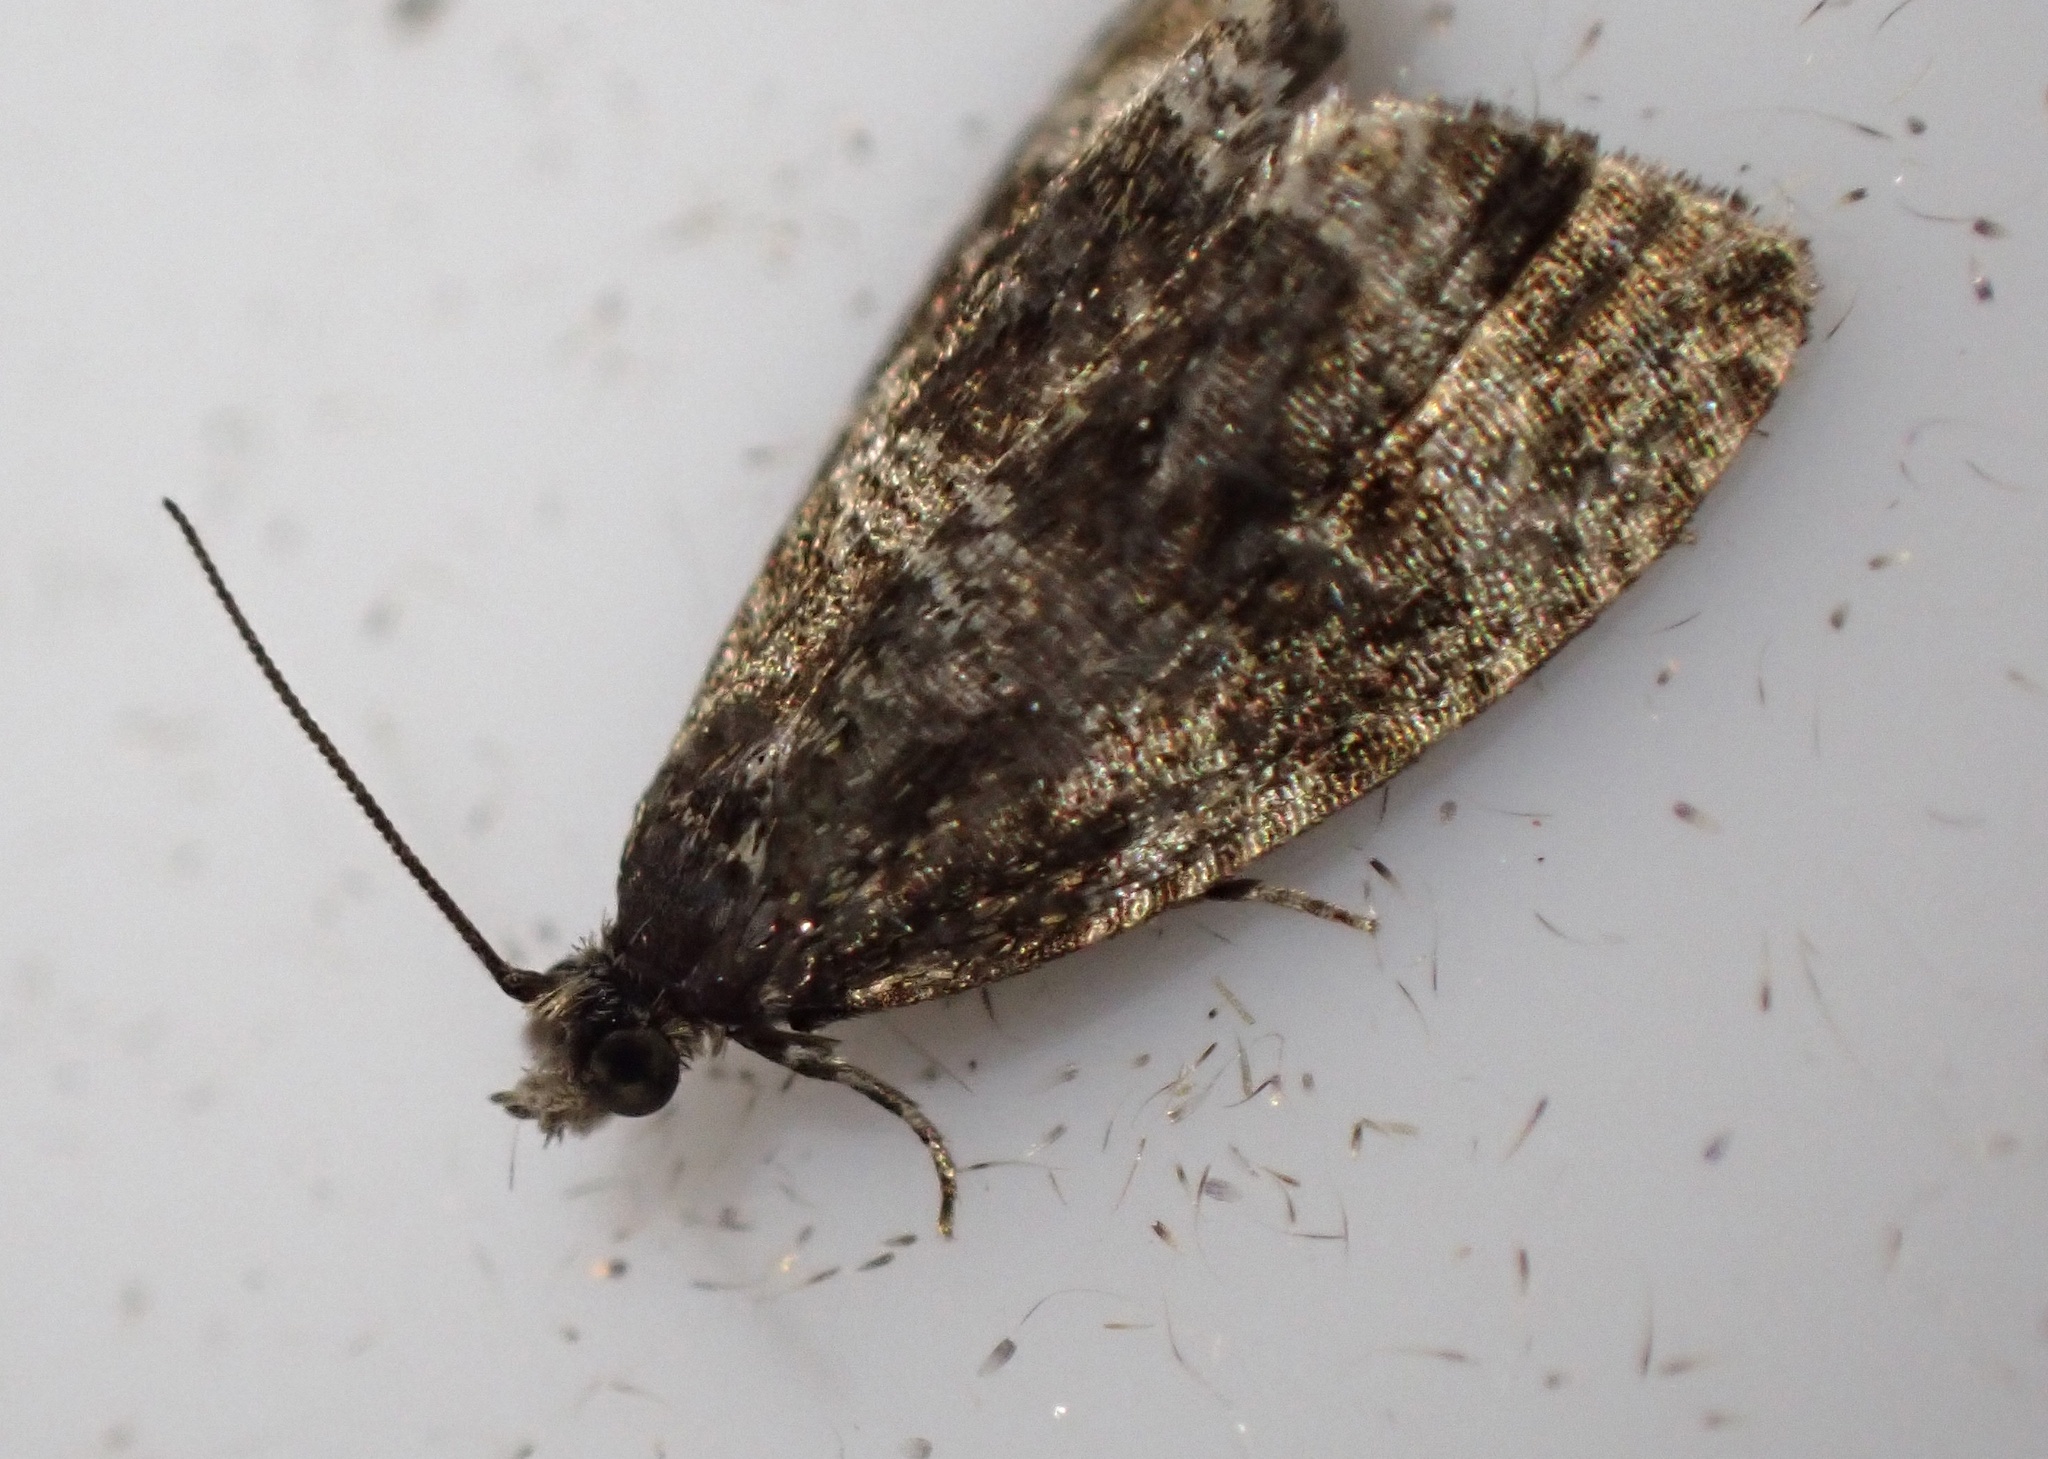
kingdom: Animalia
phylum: Arthropoda
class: Insecta
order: Lepidoptera
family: Tortricidae
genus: Syricoris
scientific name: Syricoris lacunana
